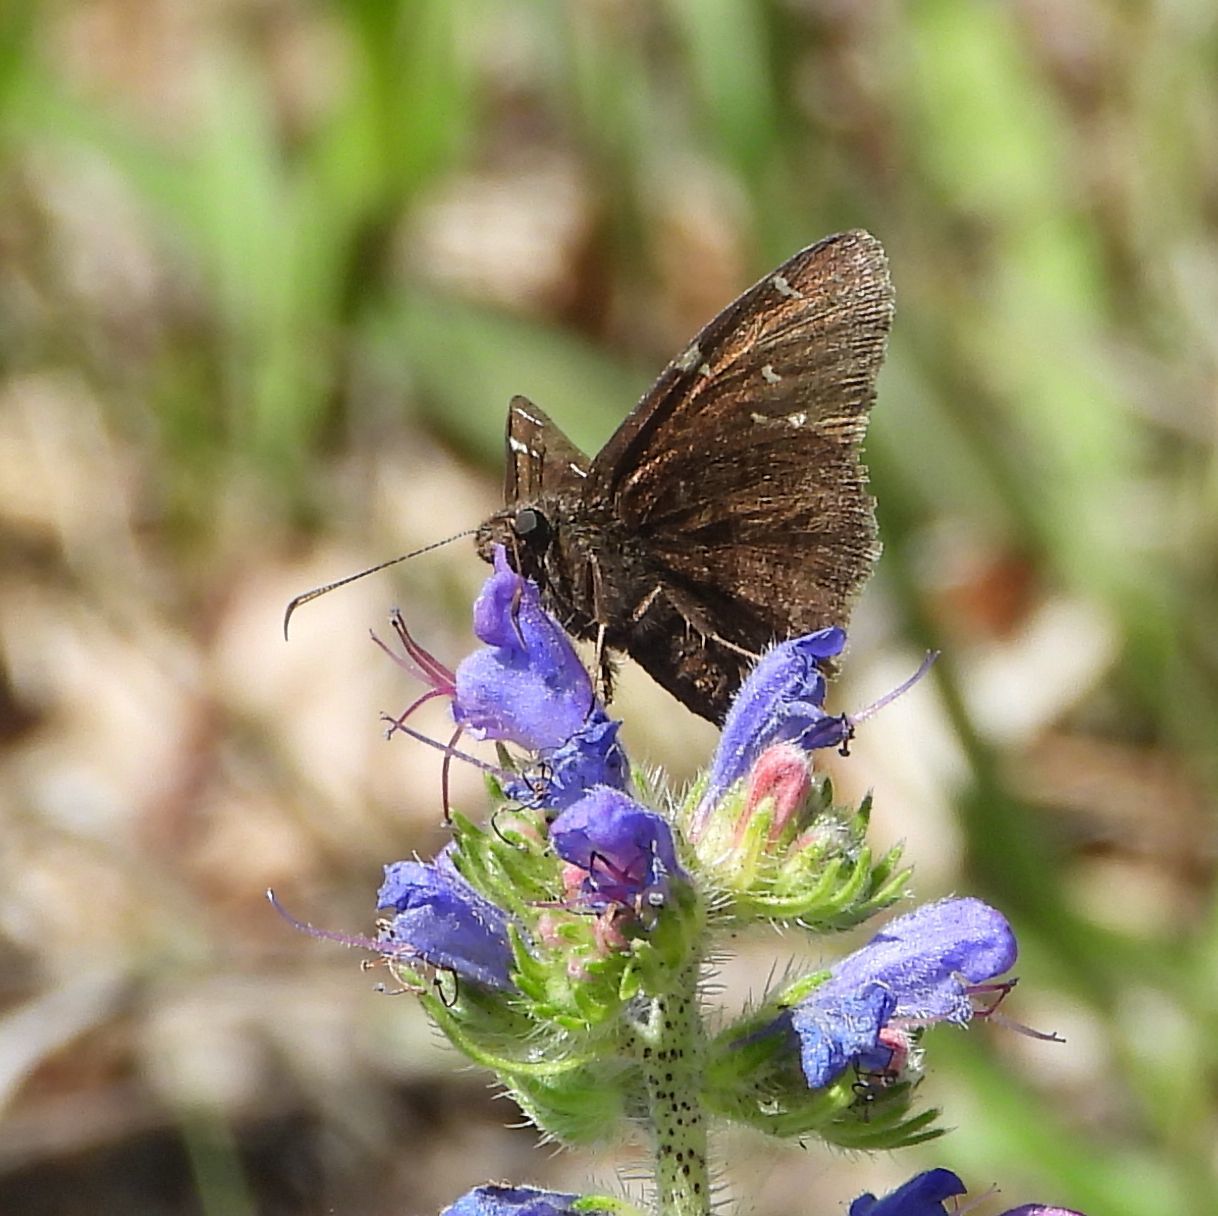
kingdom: Animalia
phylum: Arthropoda
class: Insecta
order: Lepidoptera
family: Hesperiidae
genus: Thorybes
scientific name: Thorybes pylades
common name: Northern cloudywing
